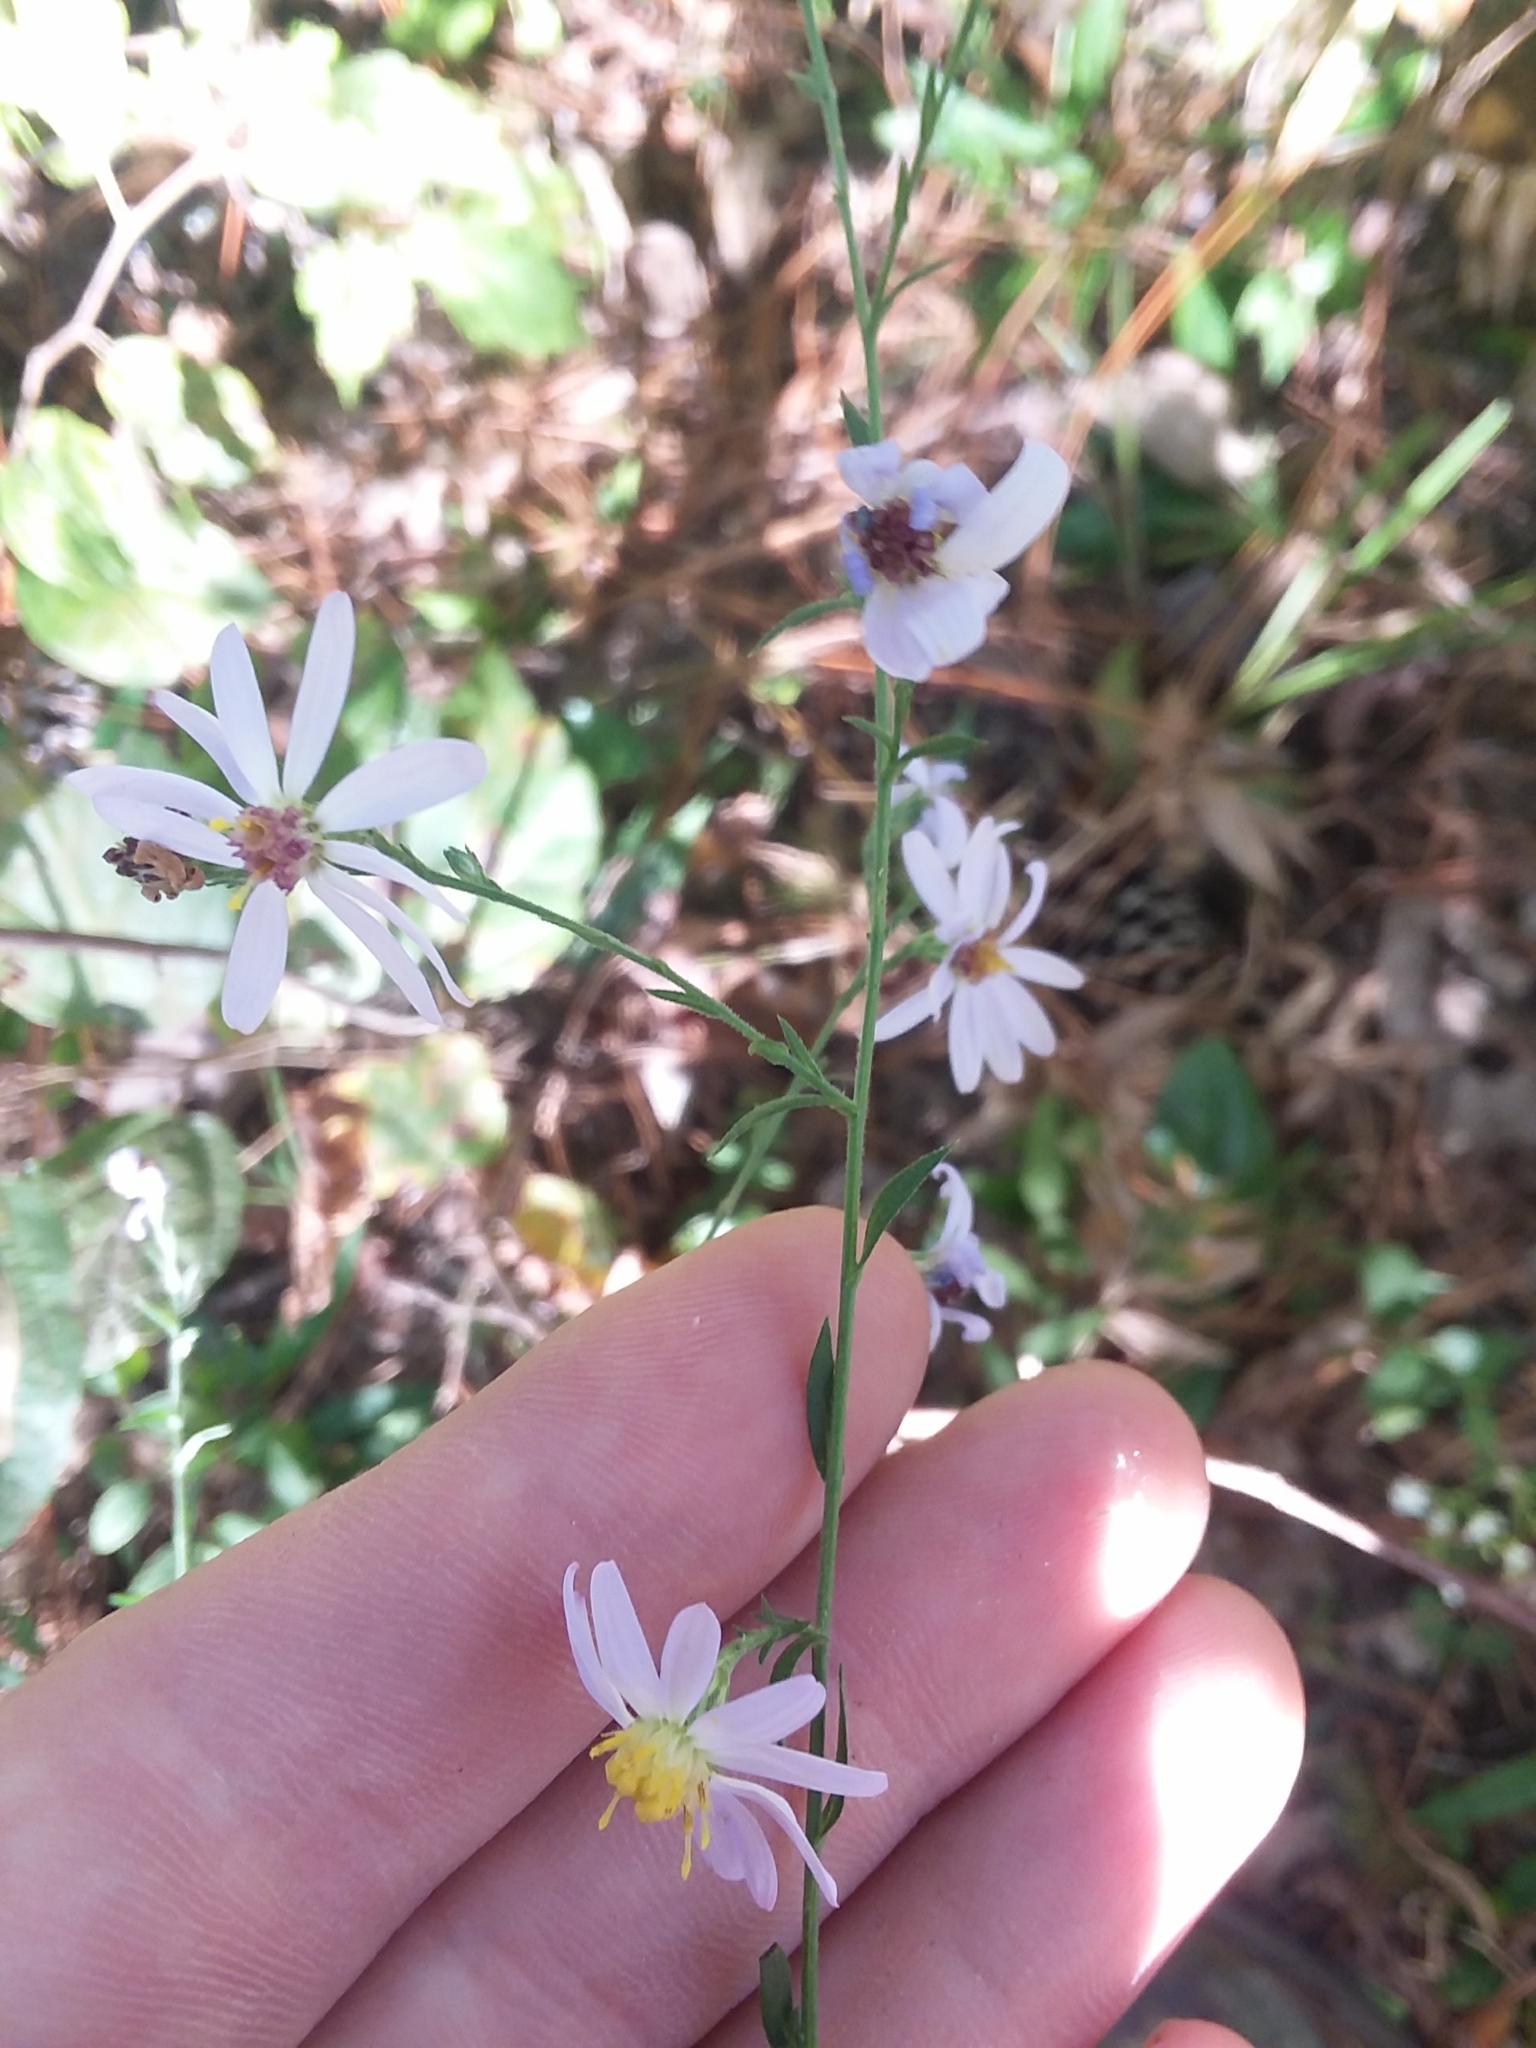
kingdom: Plantae
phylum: Tracheophyta
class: Magnoliopsida
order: Asterales
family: Asteraceae
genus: Symphyotrichum
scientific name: Symphyotrichum undulatum
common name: Clasping heart-leaf aster
